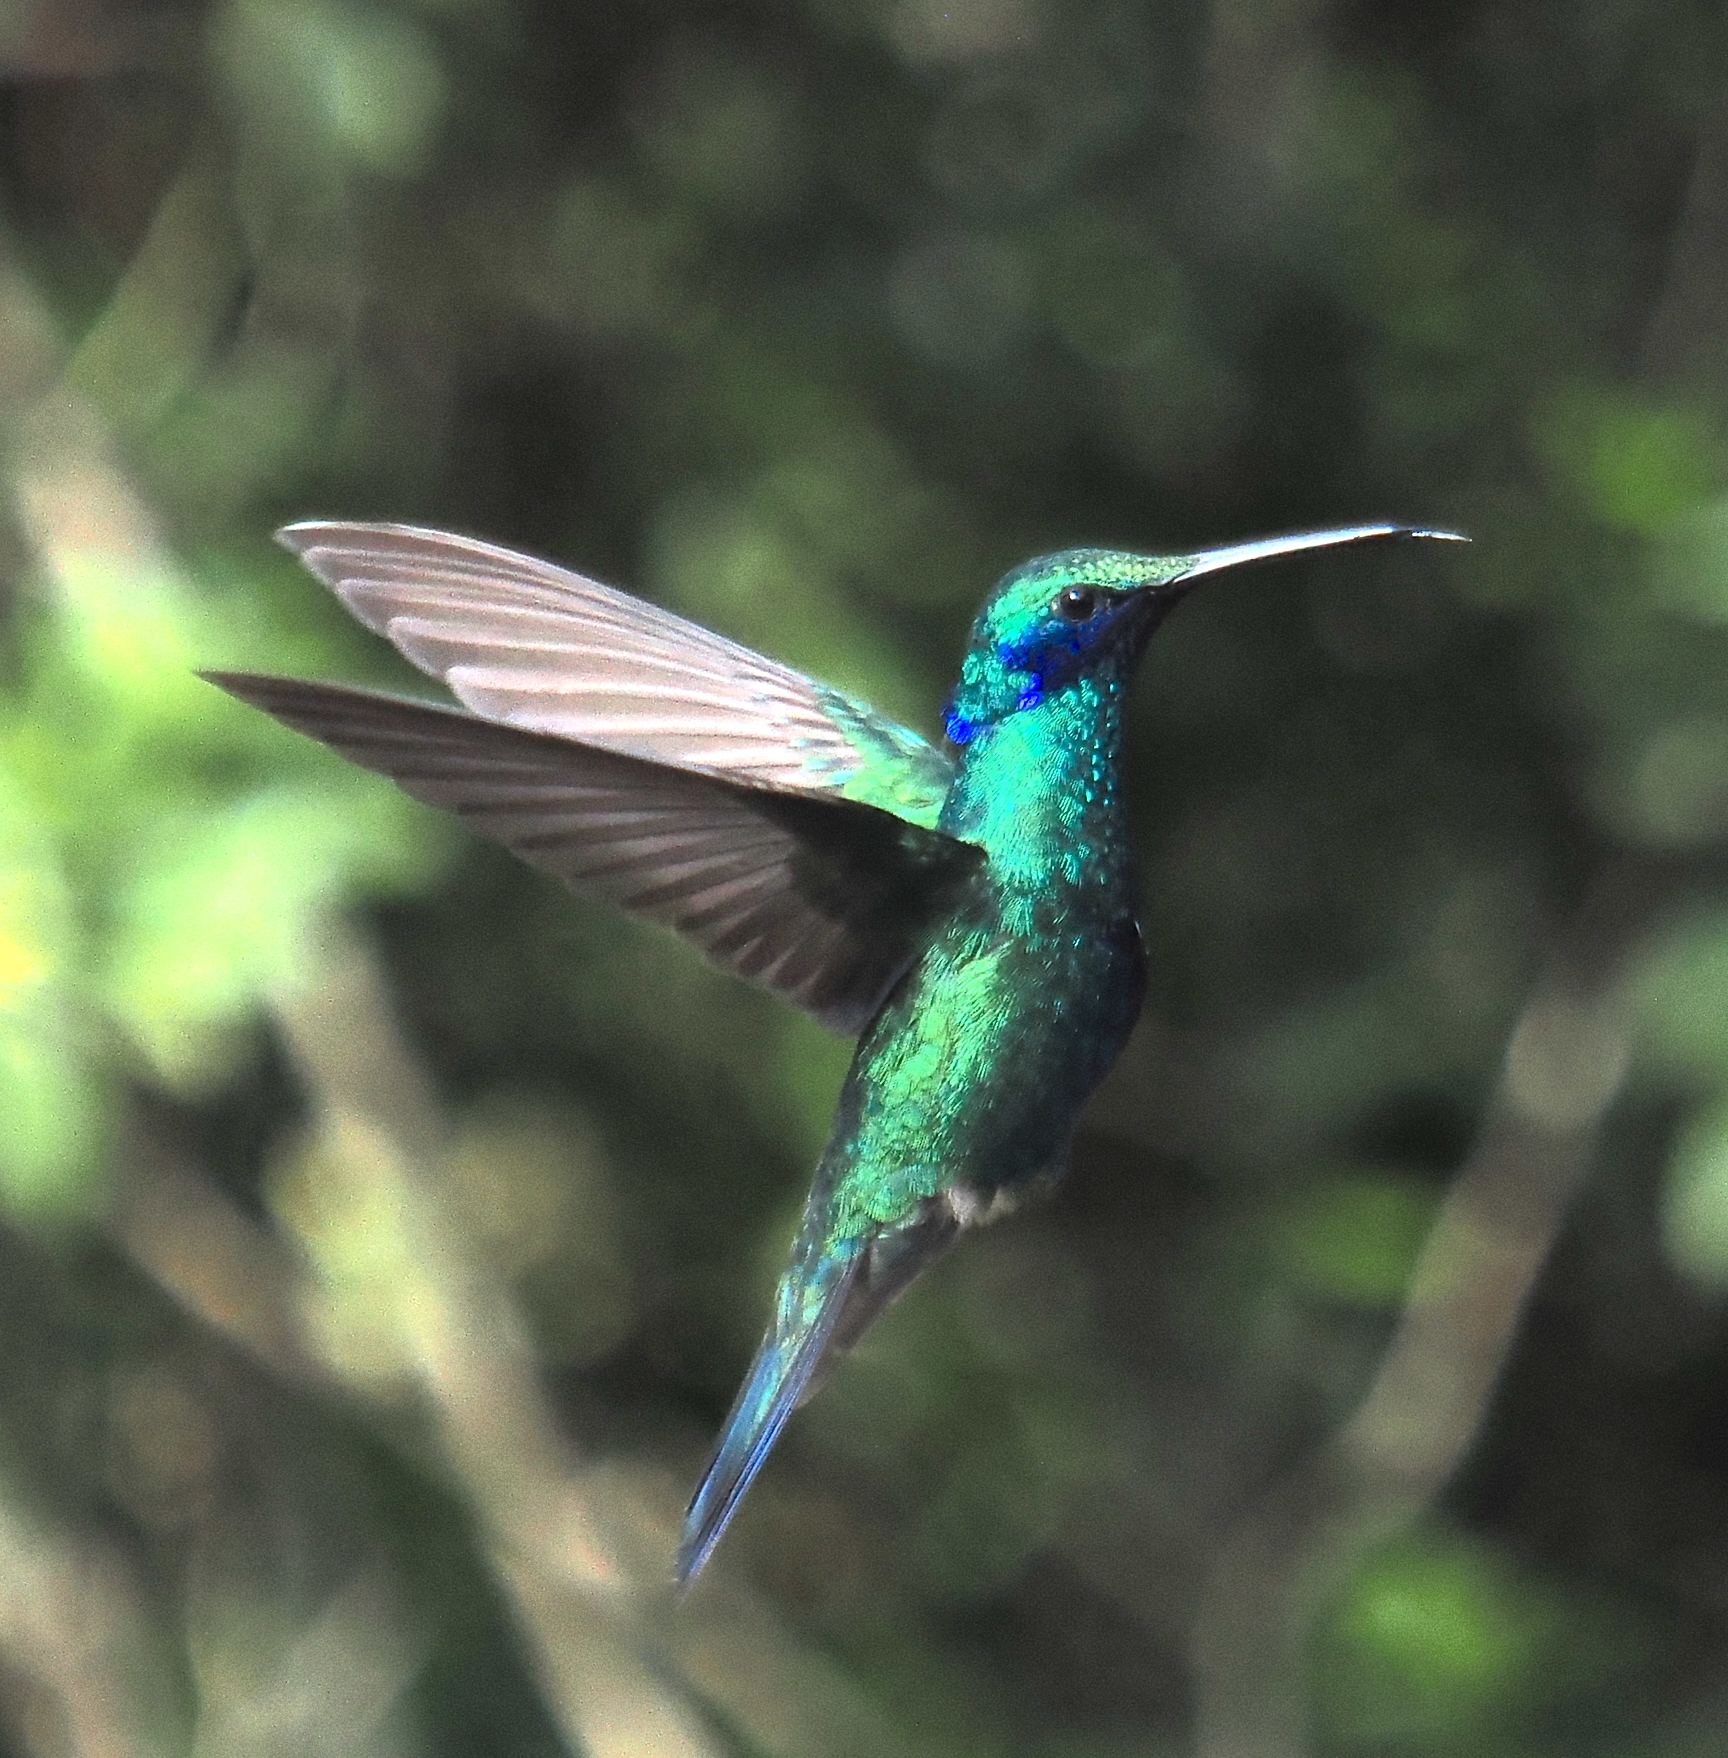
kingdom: Animalia
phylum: Chordata
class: Aves
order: Apodiformes
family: Trochilidae
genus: Colibri
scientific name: Colibri coruscans
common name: Sparkling violetear
